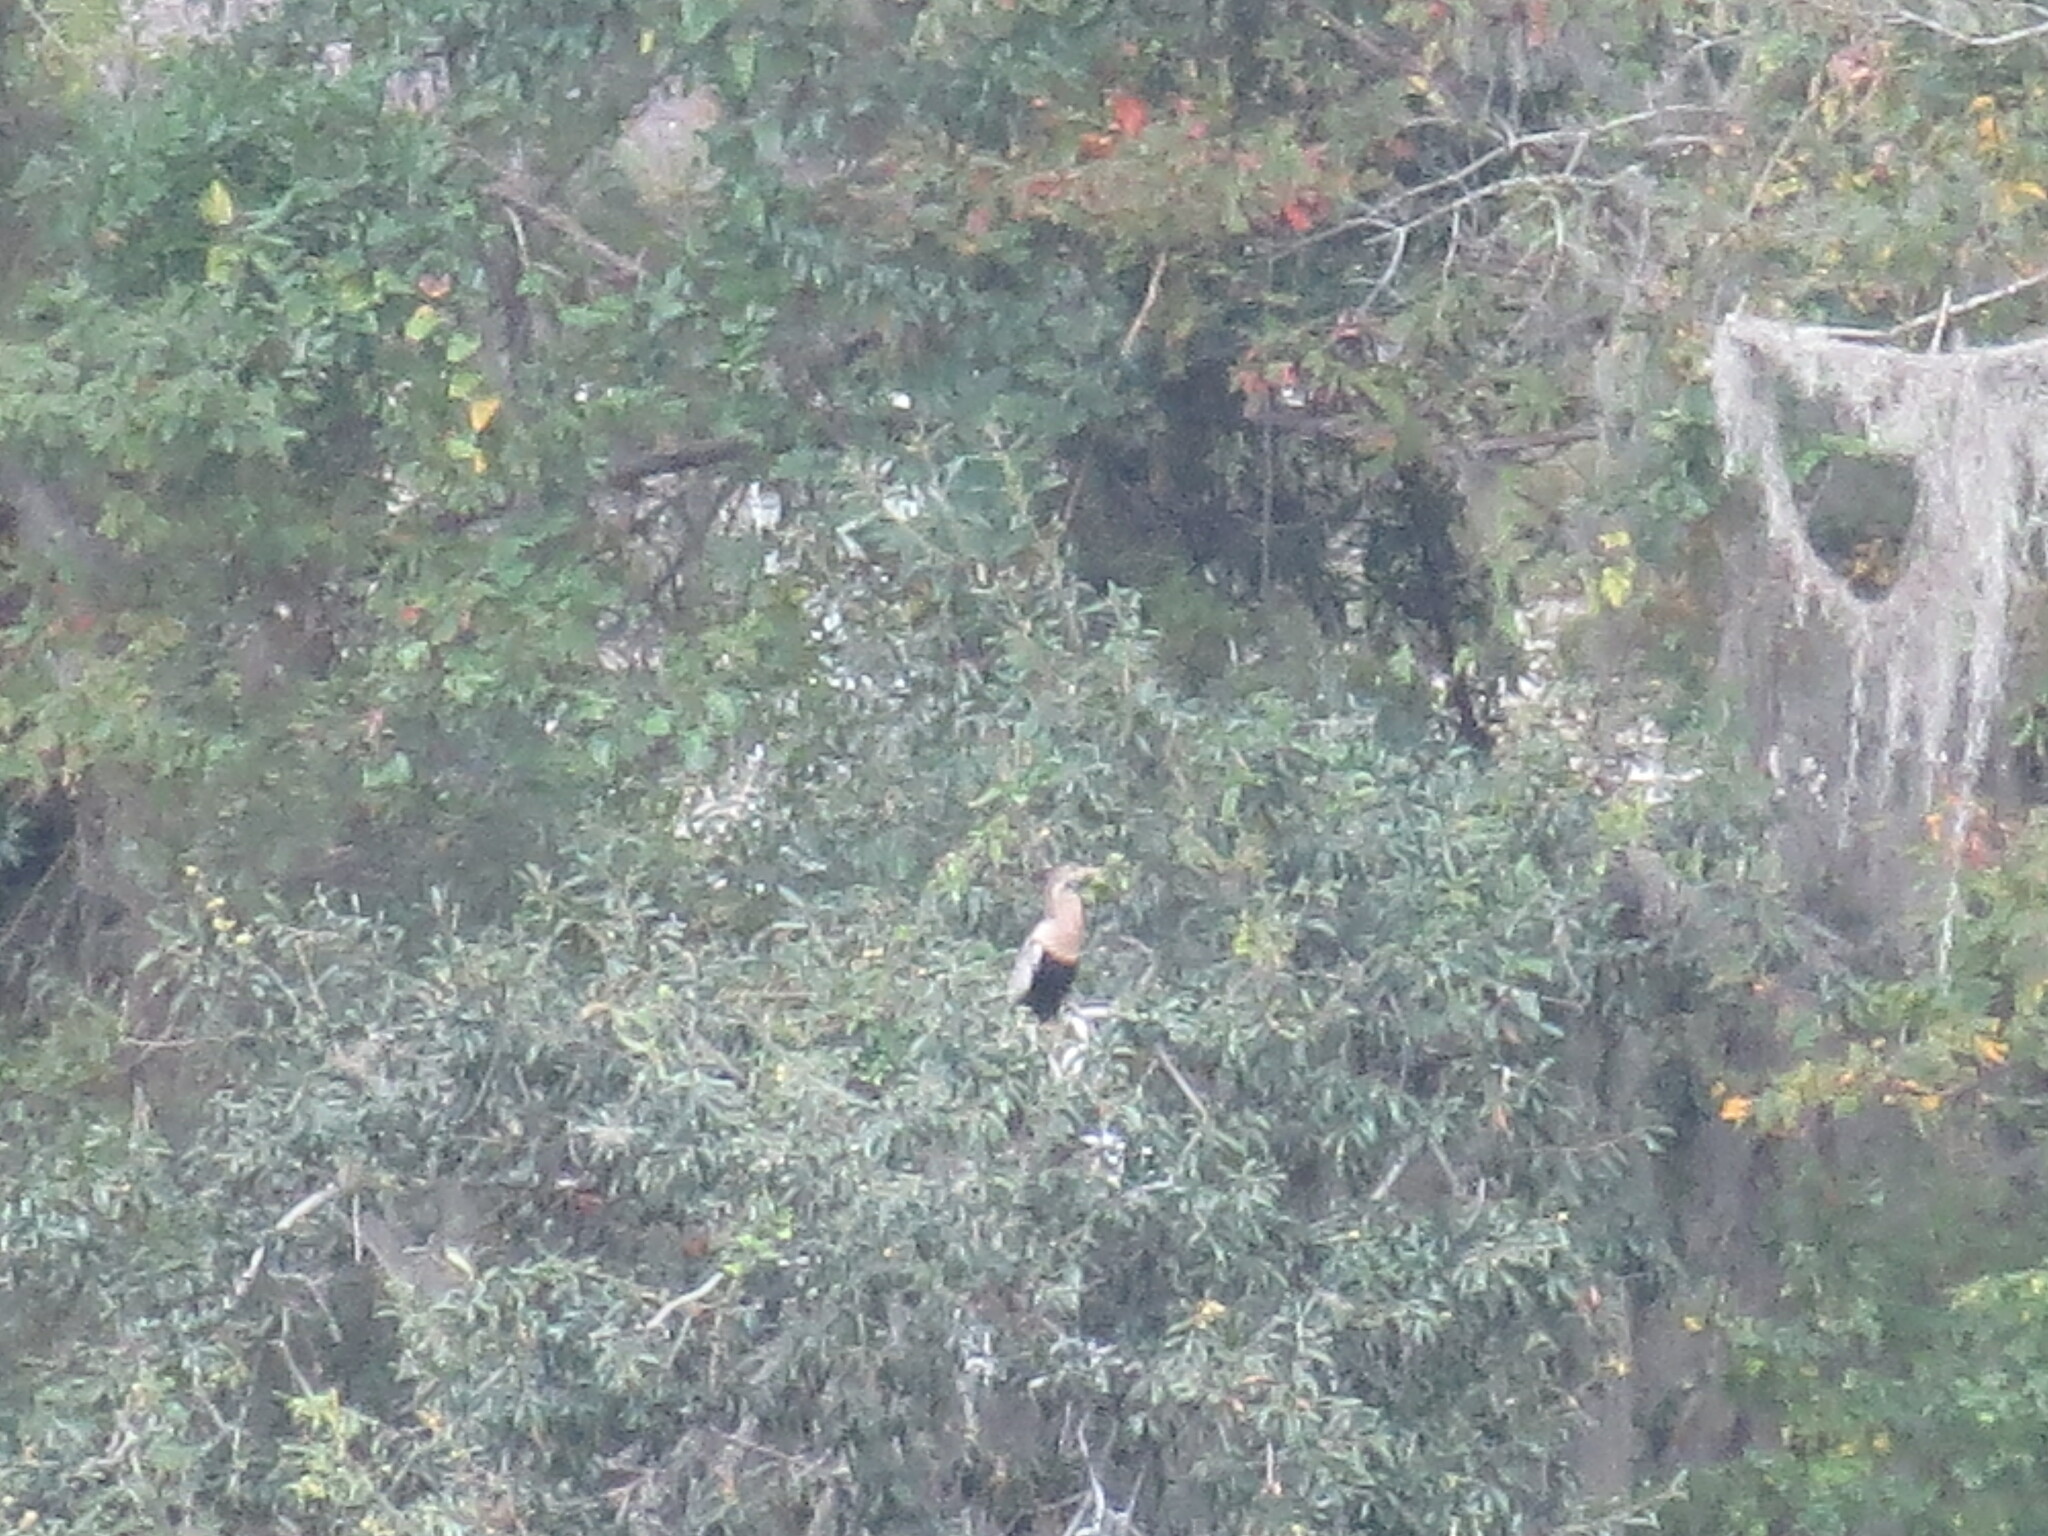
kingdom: Animalia
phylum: Chordata
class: Aves
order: Suliformes
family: Anhingidae
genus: Anhinga
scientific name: Anhinga anhinga
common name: Anhinga
